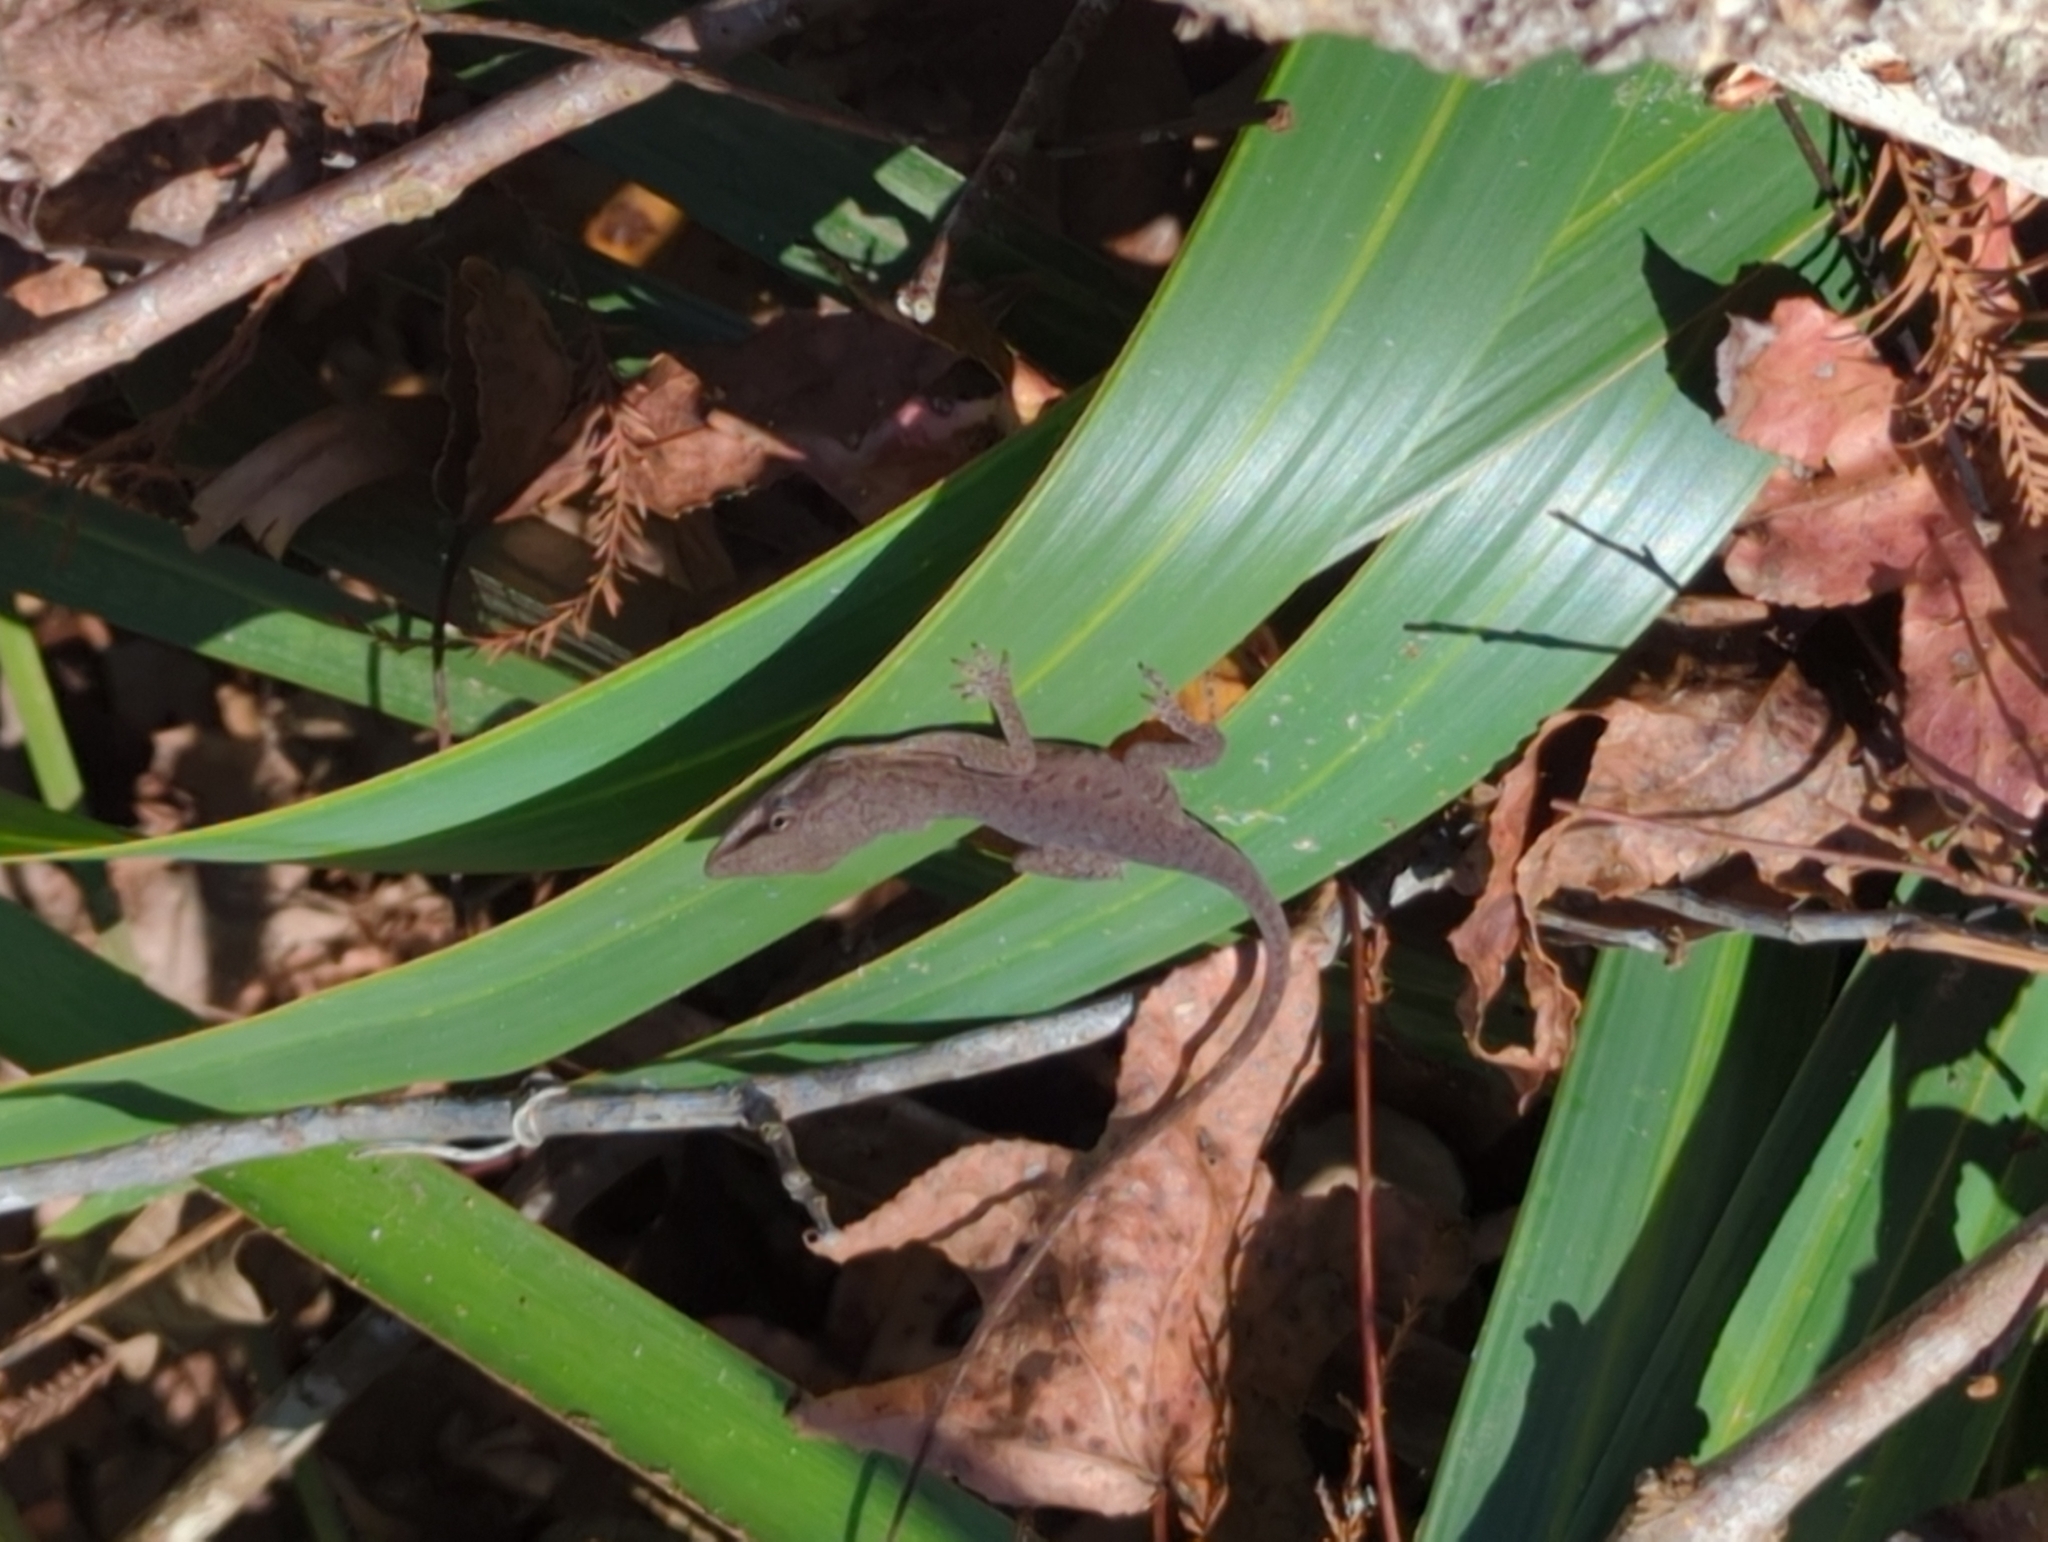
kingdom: Animalia
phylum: Chordata
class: Squamata
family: Dactyloidae
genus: Anolis
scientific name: Anolis carolinensis
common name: Green anole
